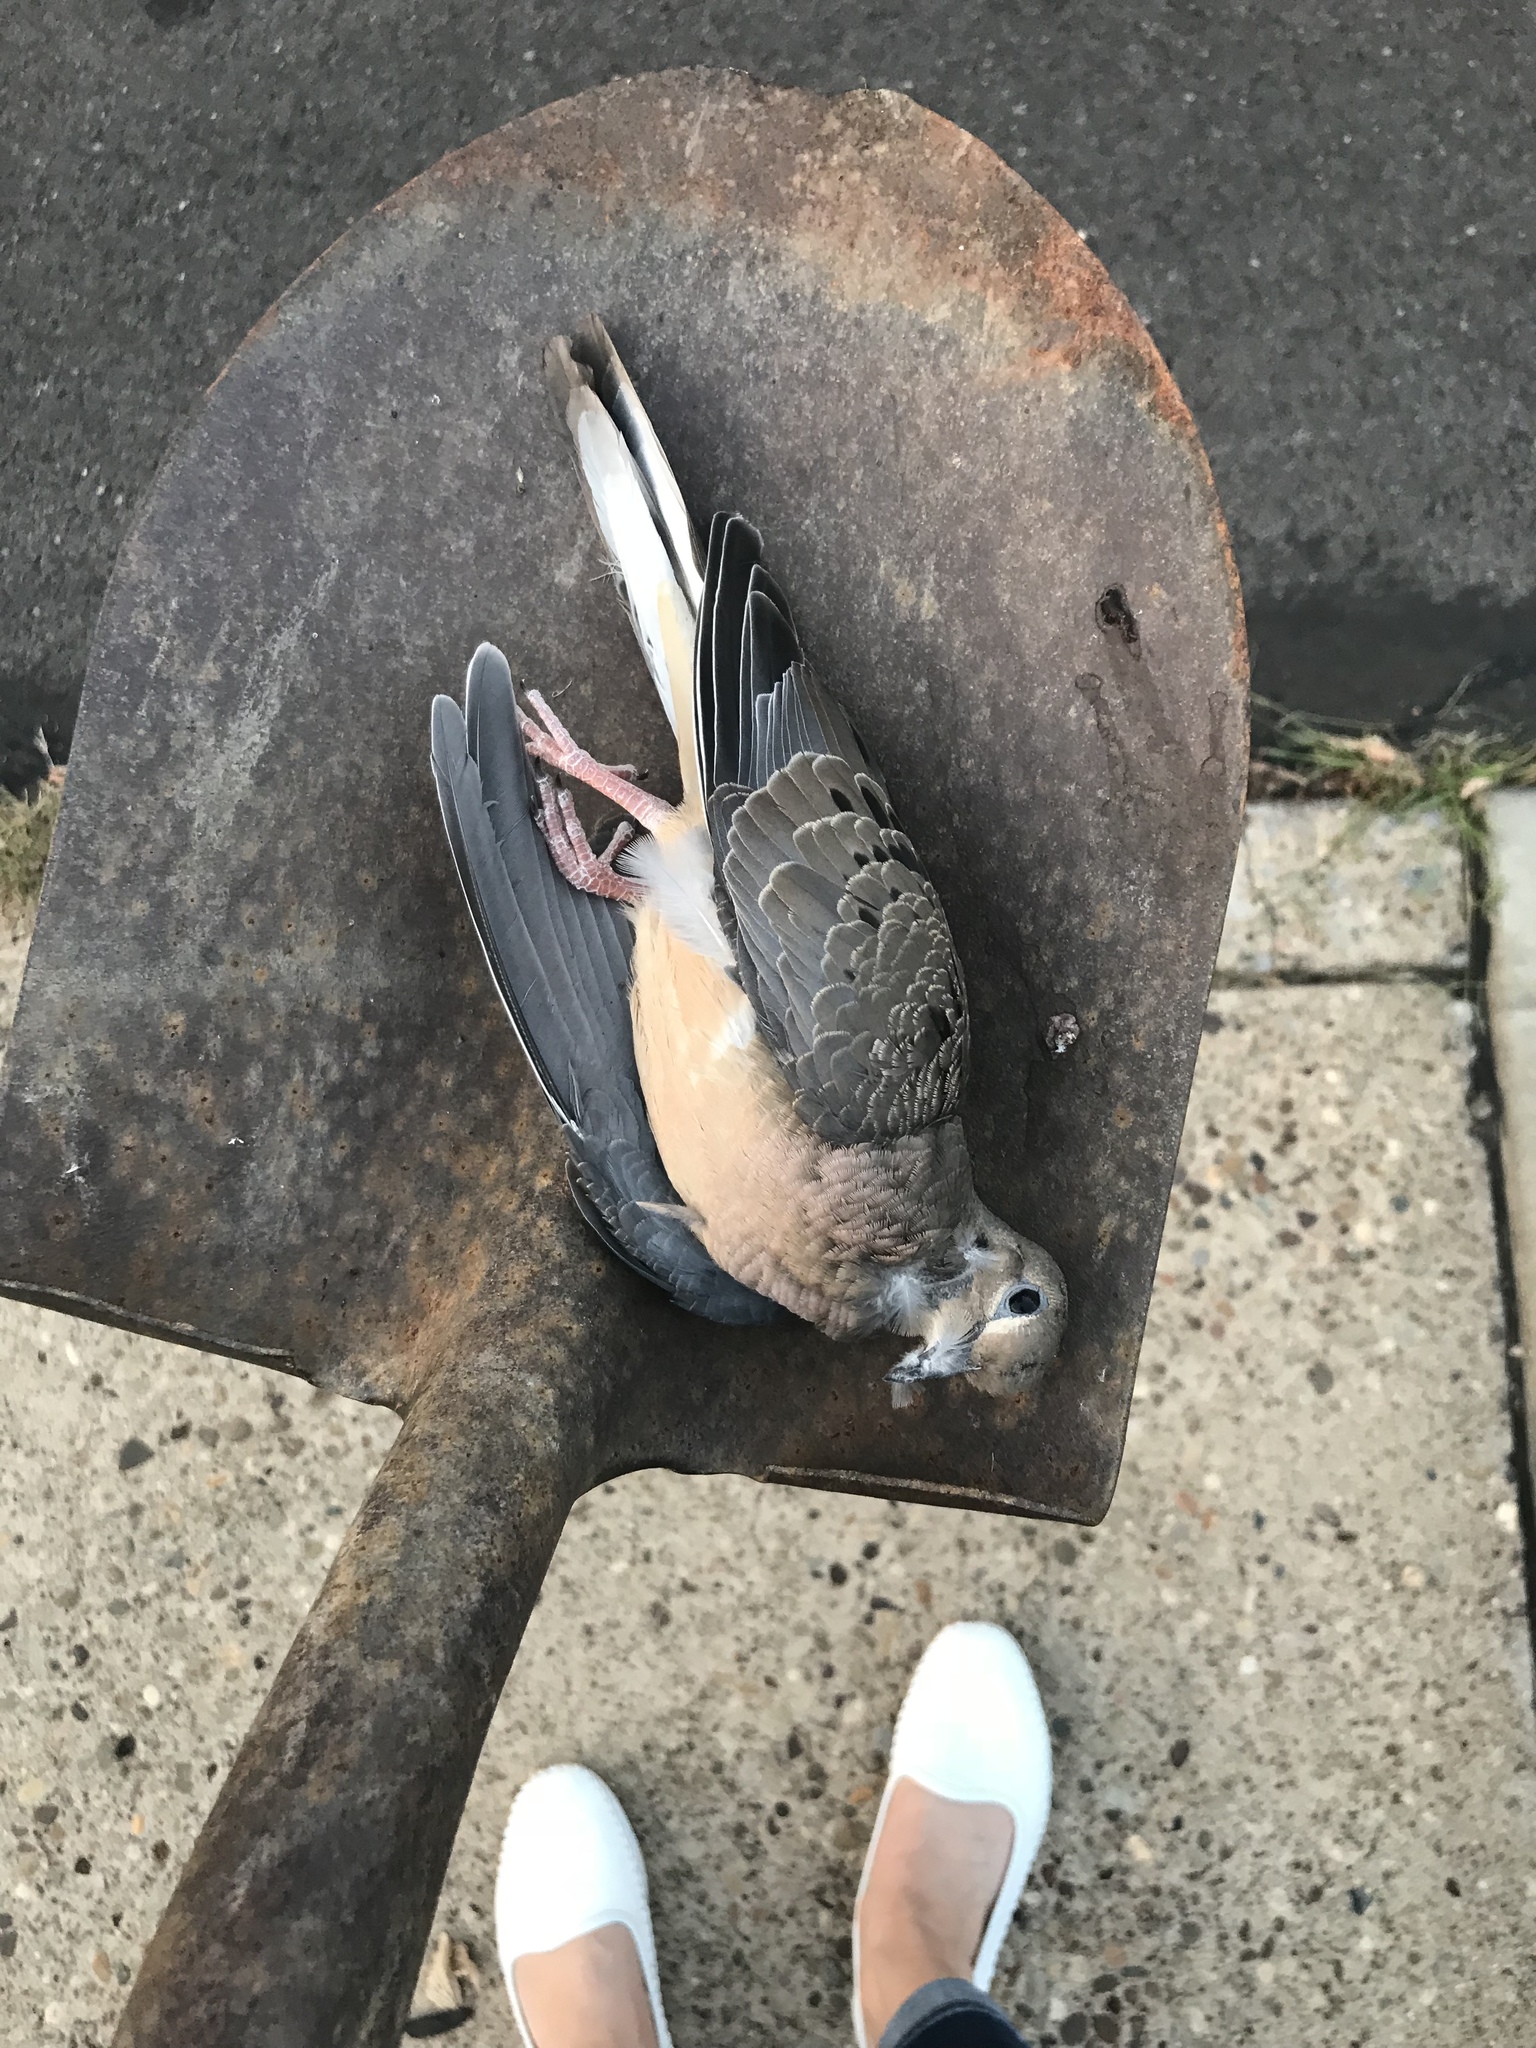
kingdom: Animalia
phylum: Chordata
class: Aves
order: Columbiformes
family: Columbidae
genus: Zenaida
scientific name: Zenaida macroura
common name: Mourning dove
